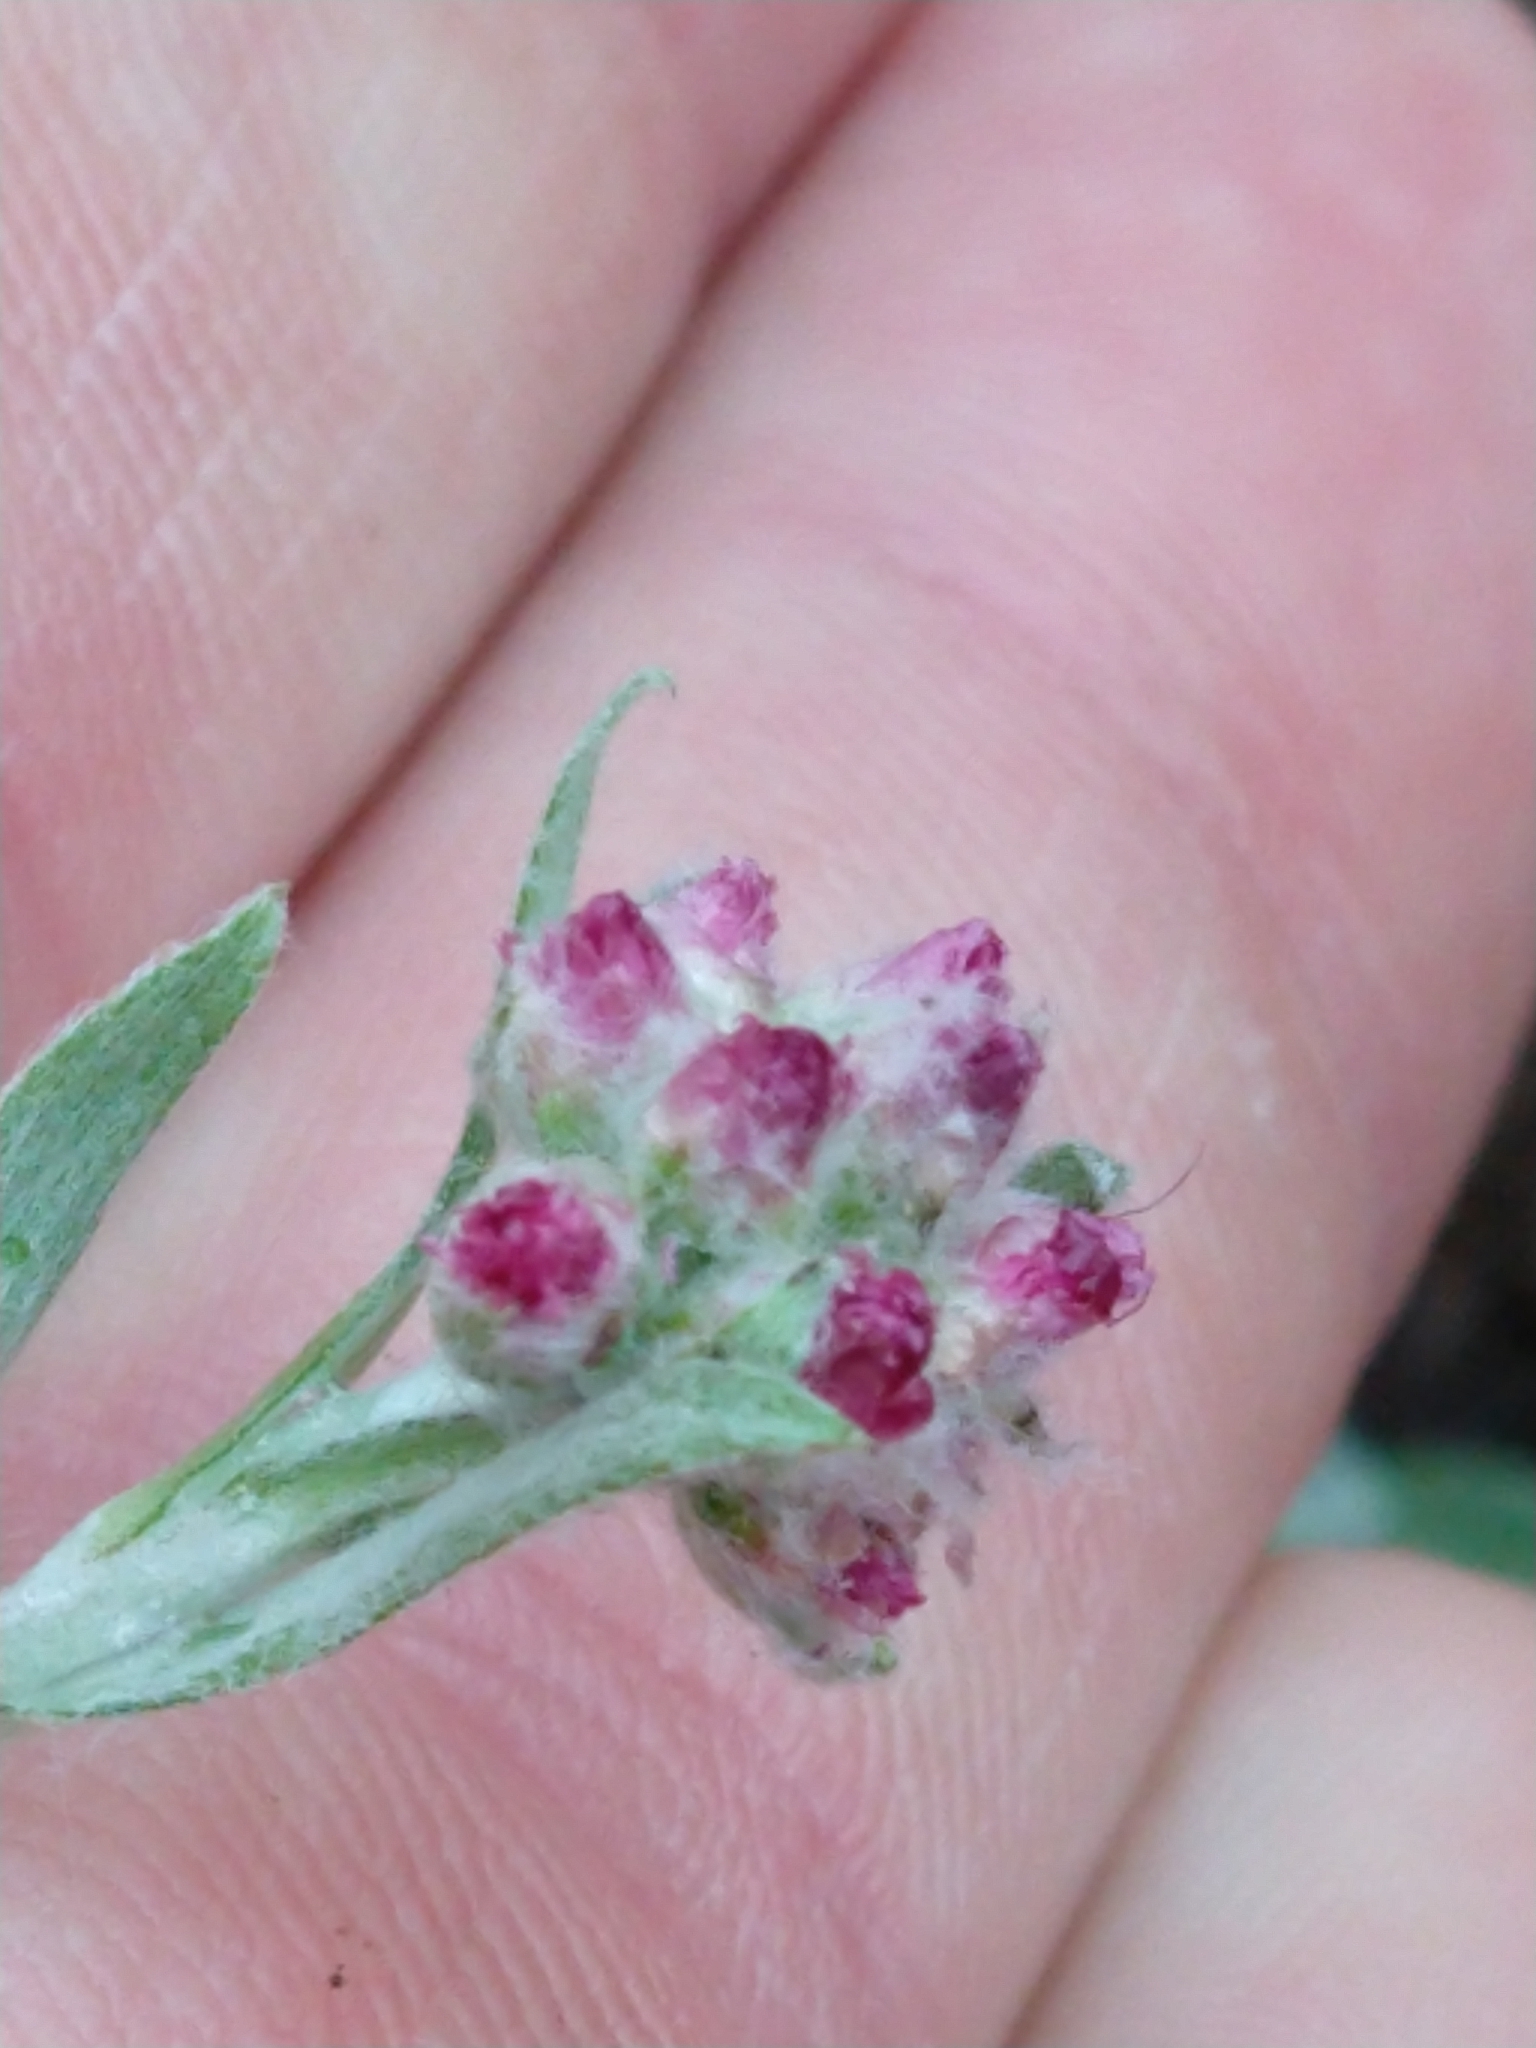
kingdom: Plantae
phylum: Tracheophyta
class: Magnoliopsida
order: Asterales
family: Asteraceae
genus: Antennaria
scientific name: Antennaria rosea
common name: Rosy pussytoes
